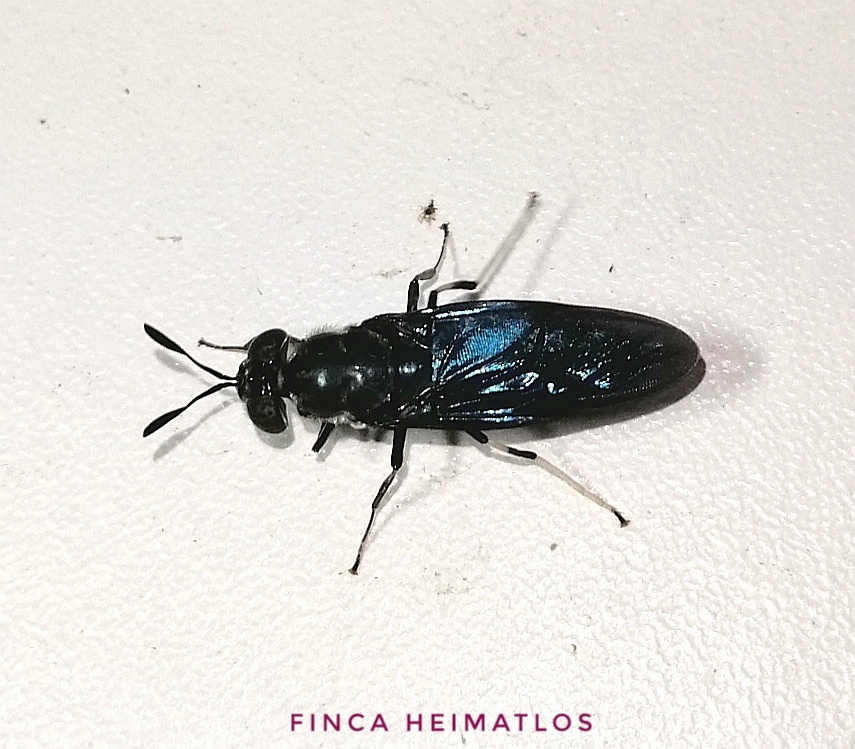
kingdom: Animalia
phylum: Arthropoda
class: Insecta
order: Diptera
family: Stratiomyidae
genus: Hermetia
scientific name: Hermetia illucens
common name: Black soldier fly
